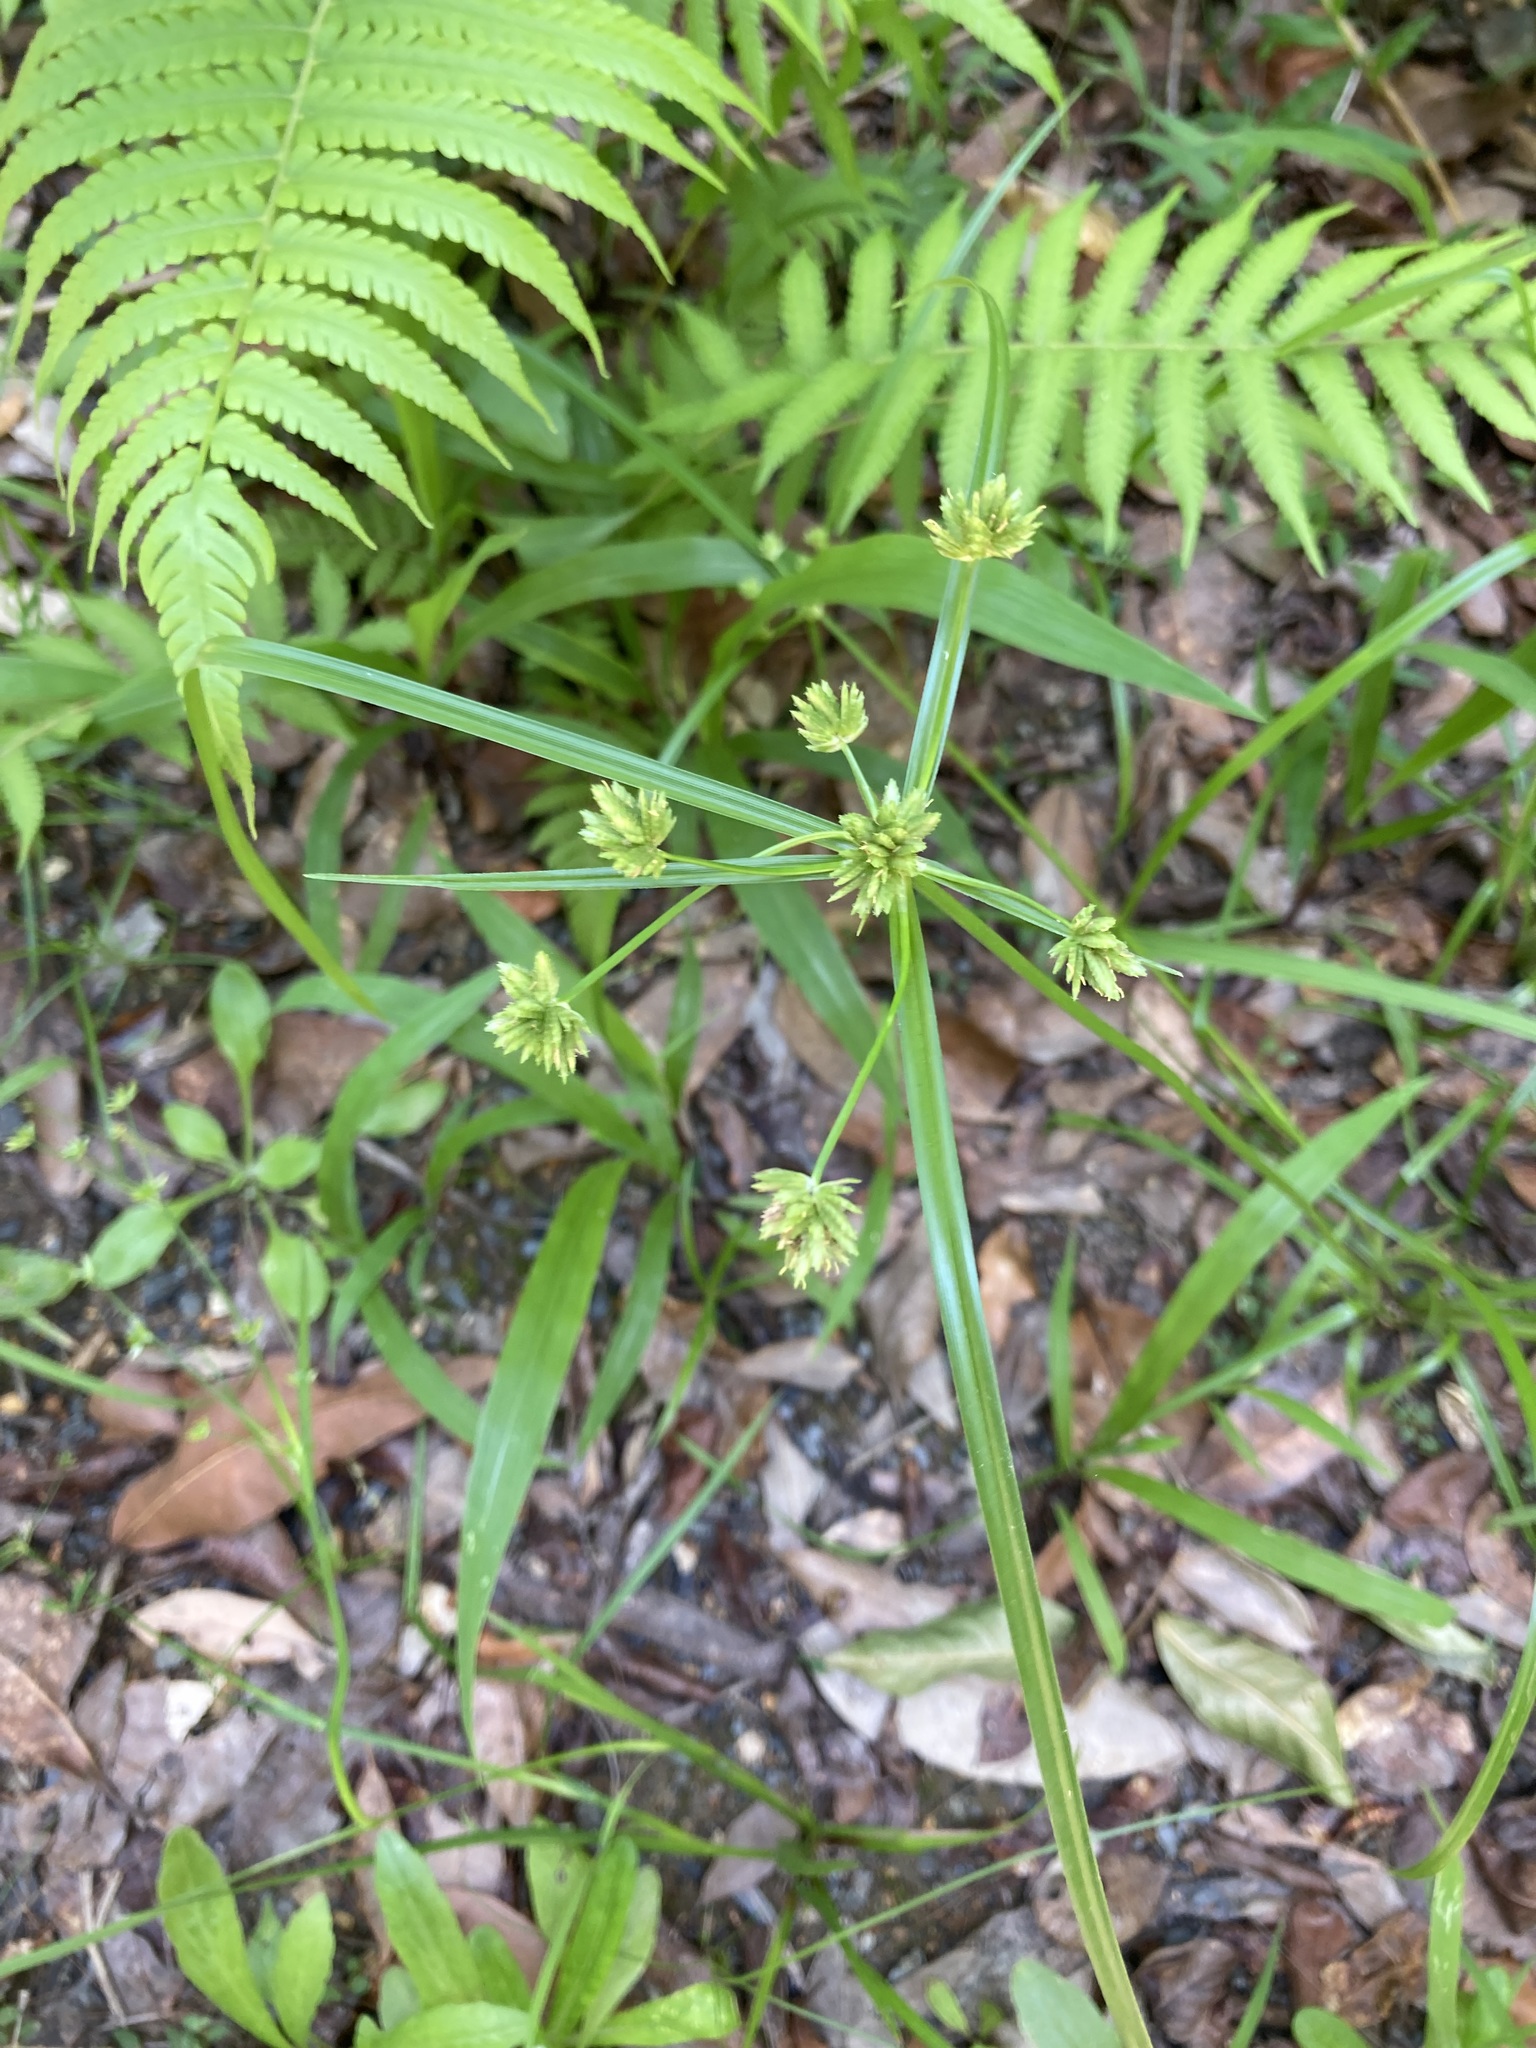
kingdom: Plantae
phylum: Tracheophyta
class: Liliopsida
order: Poales
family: Cyperaceae
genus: Cyperus
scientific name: Cyperus eragrostis
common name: Tall flatsedge
